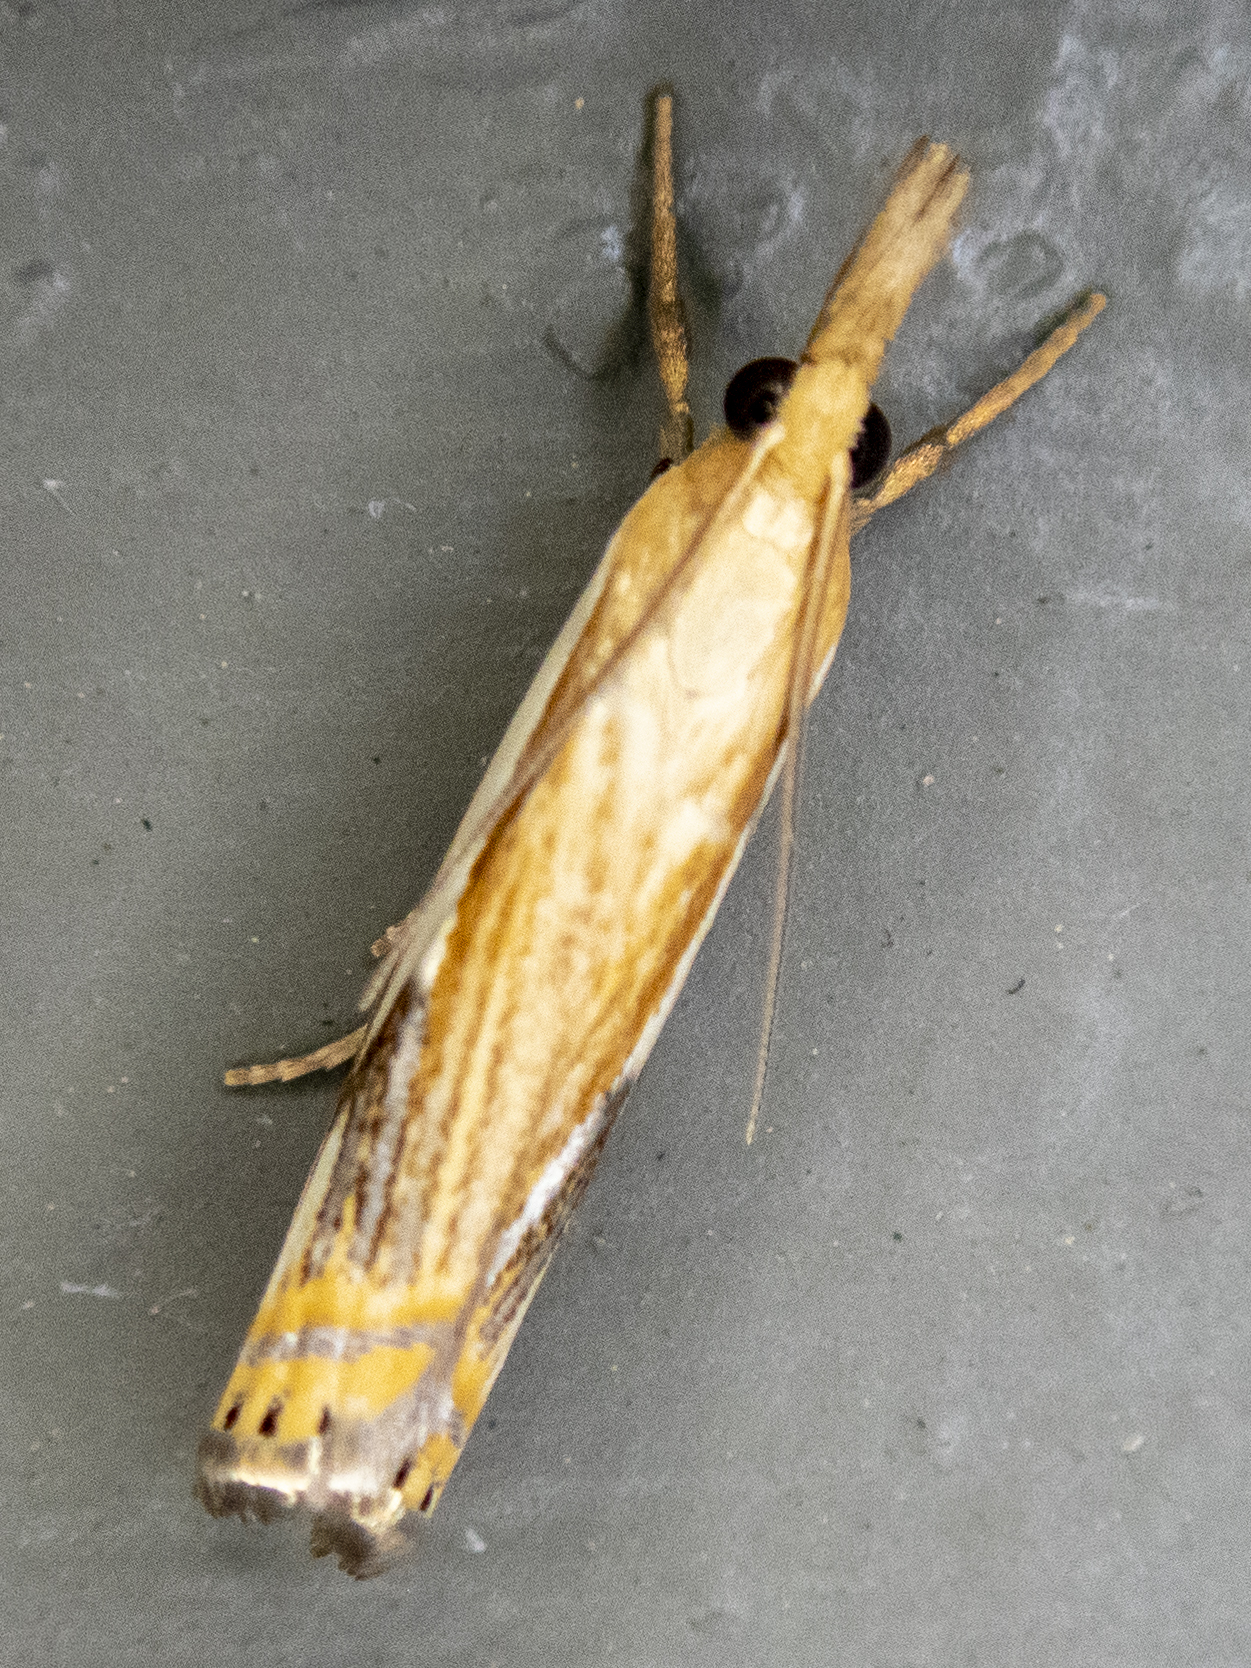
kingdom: Animalia
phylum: Arthropoda
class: Insecta
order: Lepidoptera
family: Crambidae
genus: Crambus
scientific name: Crambus agitatellus
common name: Double-banded grass-veneer
